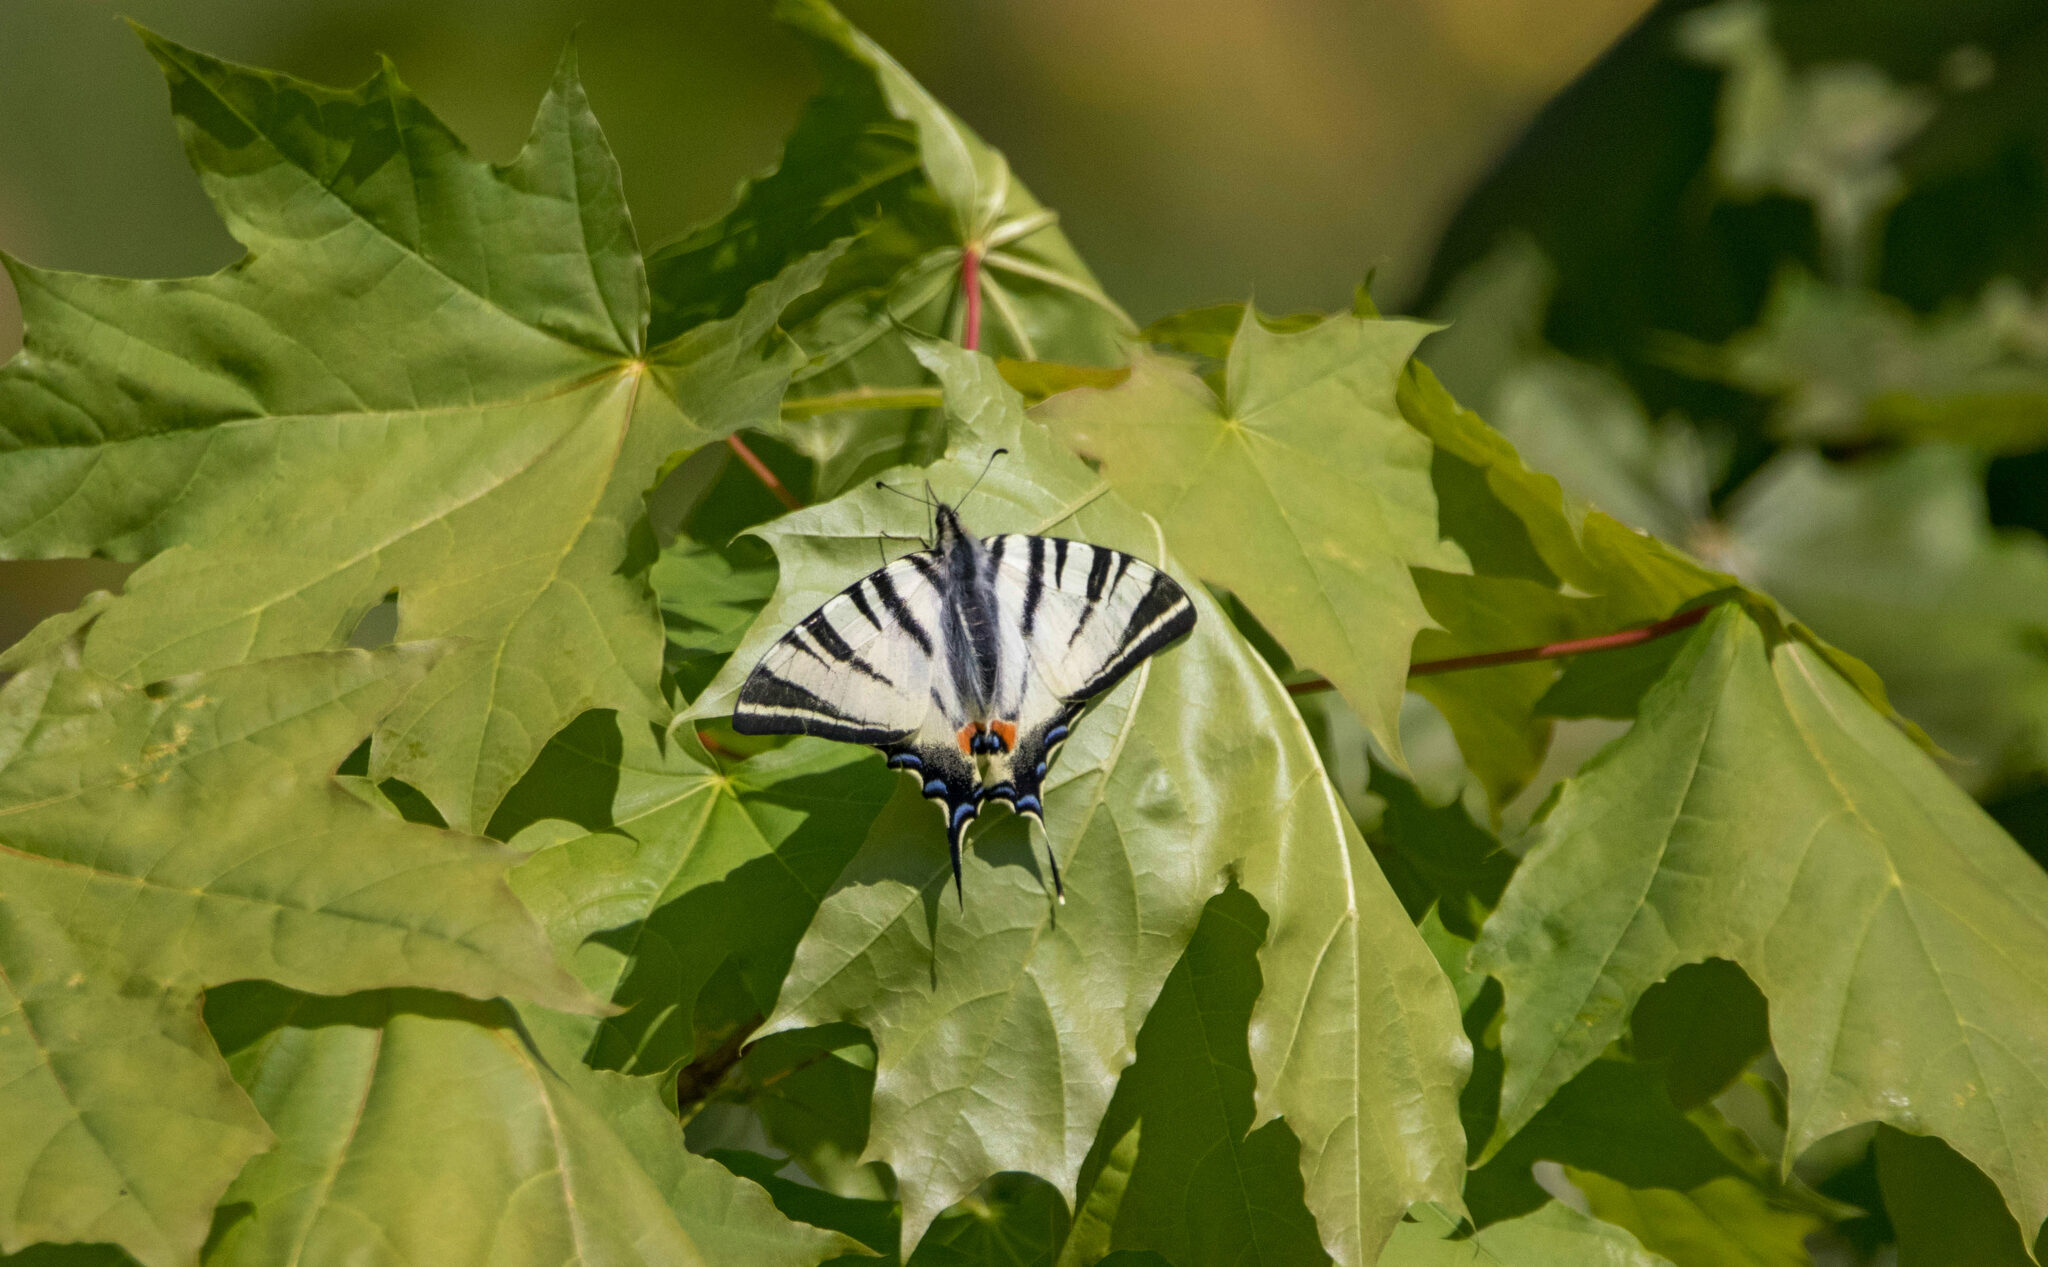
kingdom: Animalia
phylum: Arthropoda
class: Insecta
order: Lepidoptera
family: Papilionidae
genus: Iphiclides
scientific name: Iphiclides podalirius
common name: Scarce swallowtail
